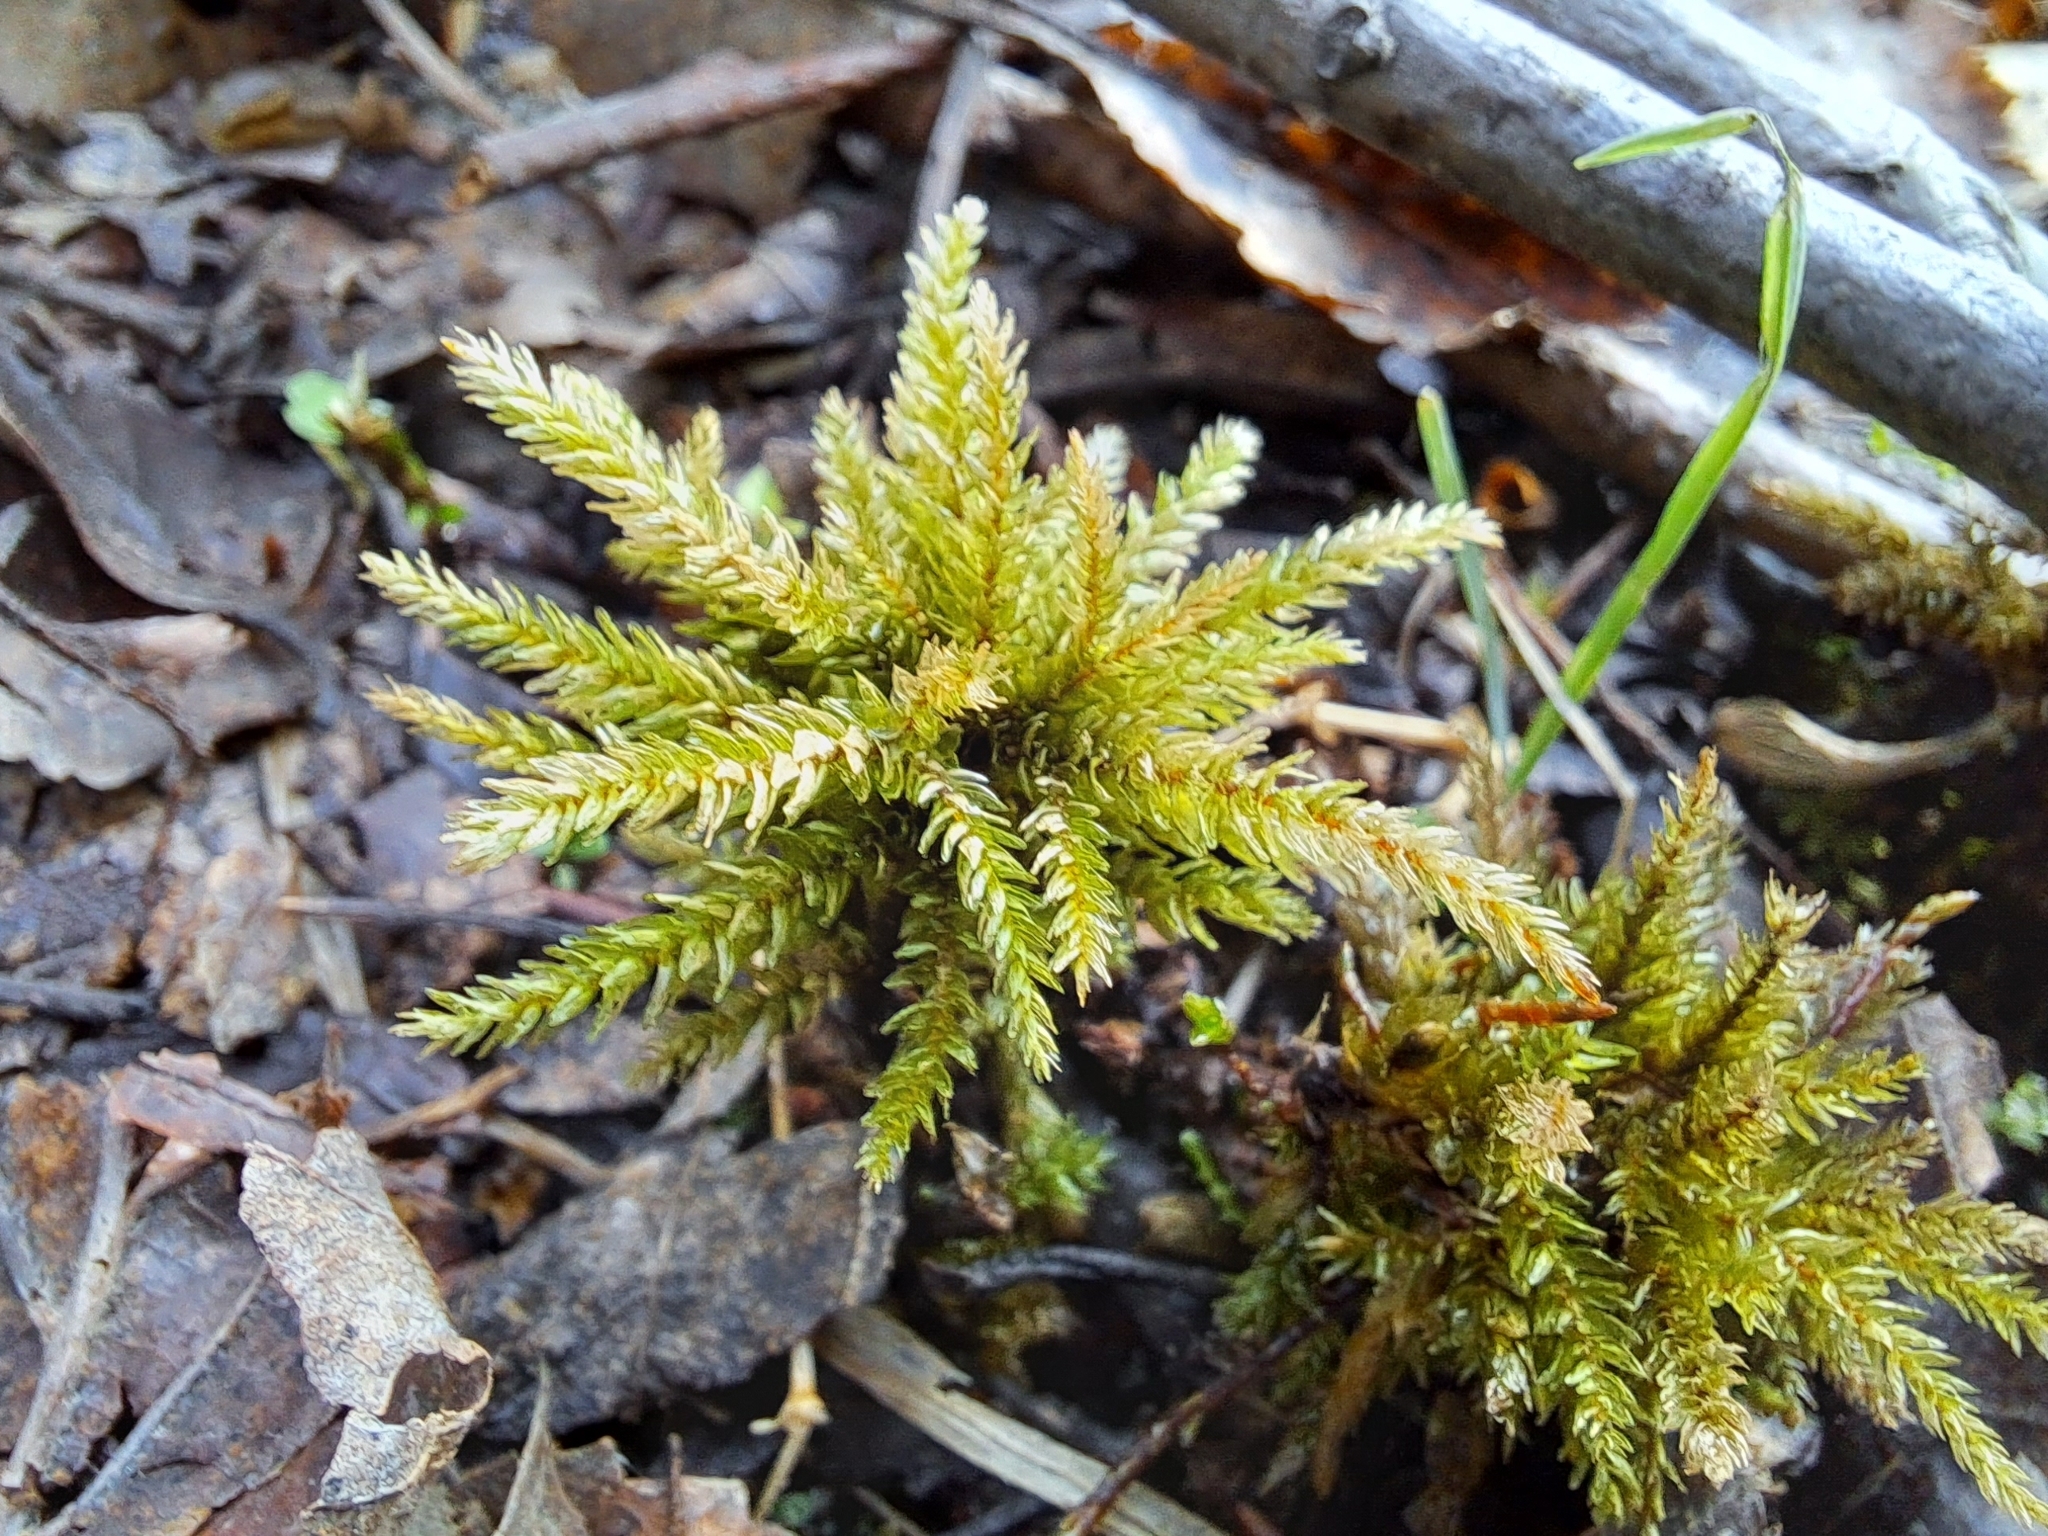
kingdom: Plantae
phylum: Bryophyta
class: Bryopsida
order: Hypnales
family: Climaciaceae
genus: Climacium
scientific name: Climacium dendroides
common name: Northern tree moss
